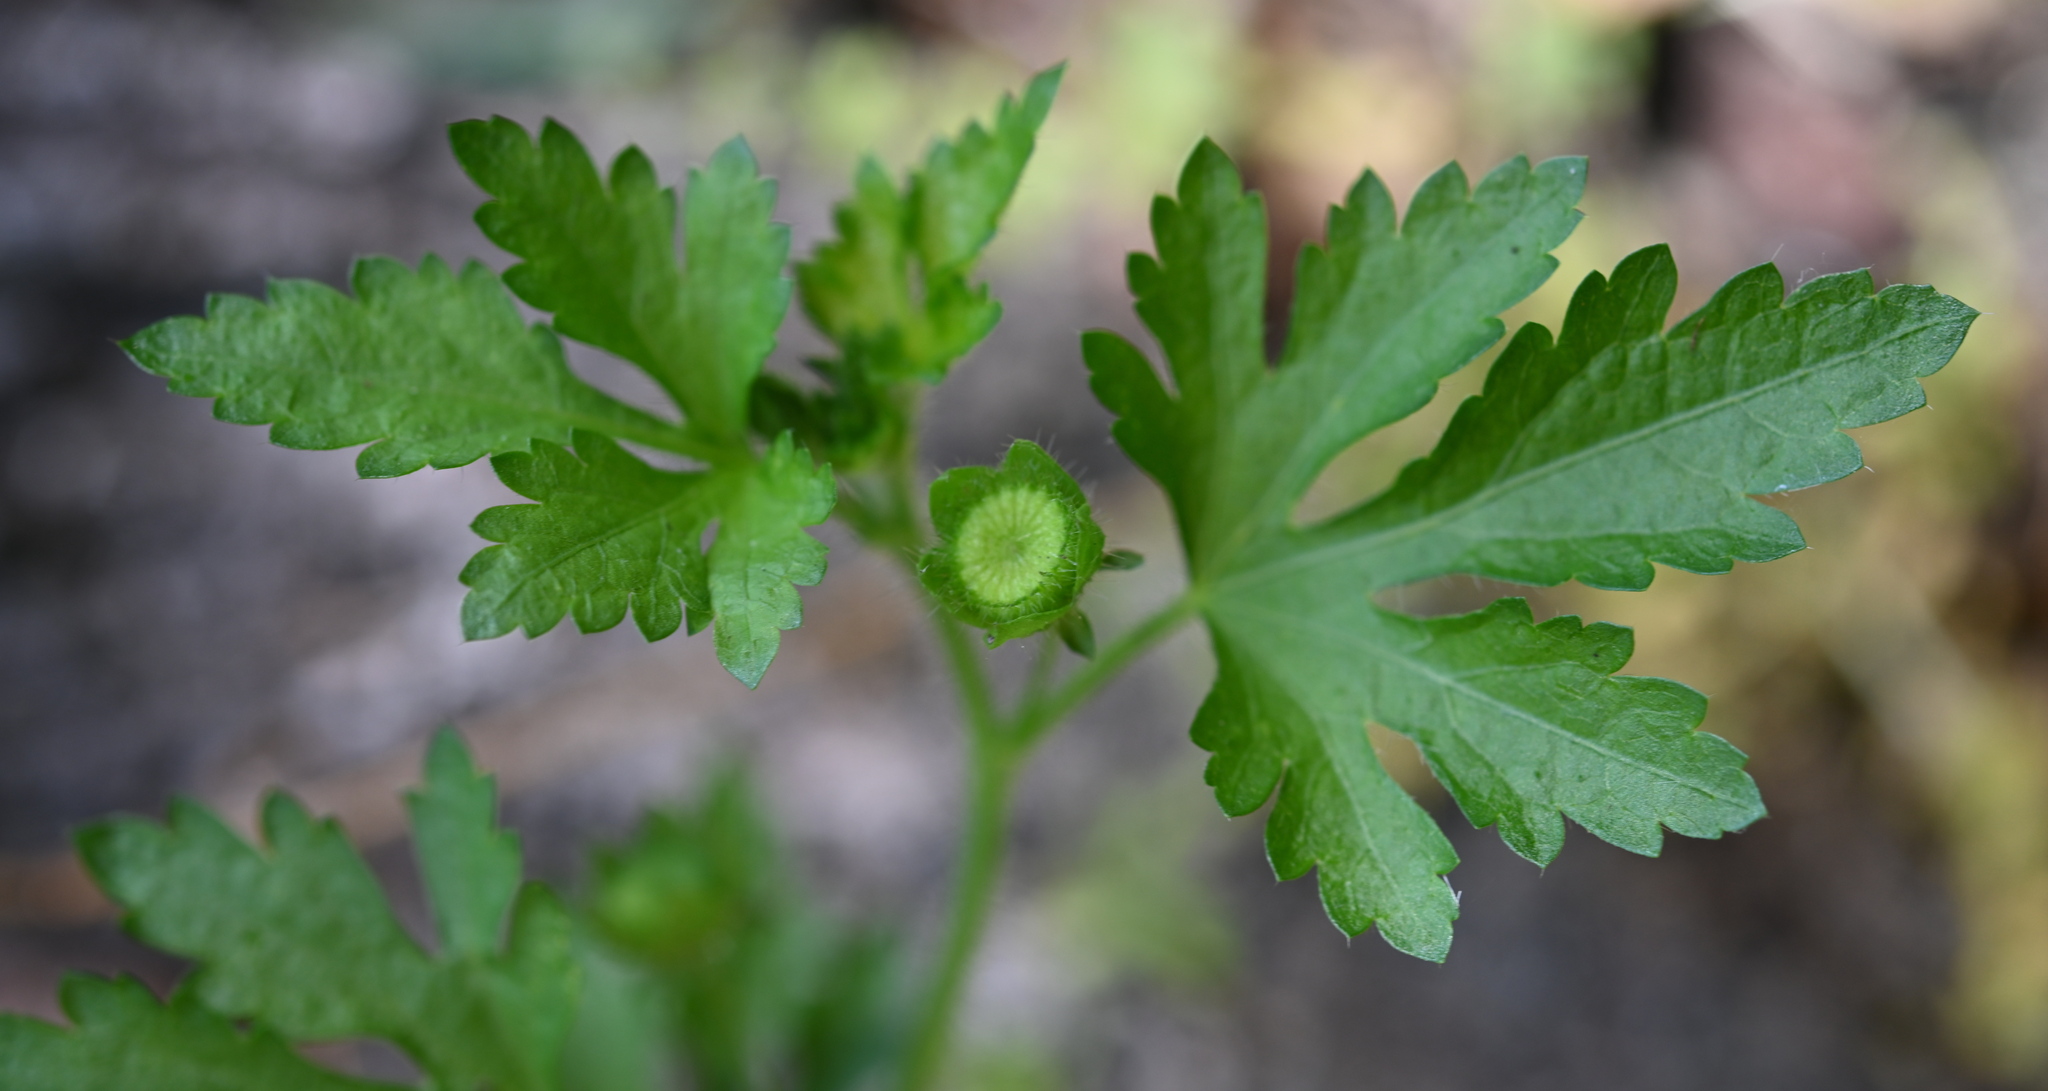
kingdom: Plantae
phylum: Tracheophyta
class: Magnoliopsida
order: Malvales
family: Malvaceae
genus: Modiola
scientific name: Modiola caroliniana
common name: Carolina bristlemallow
